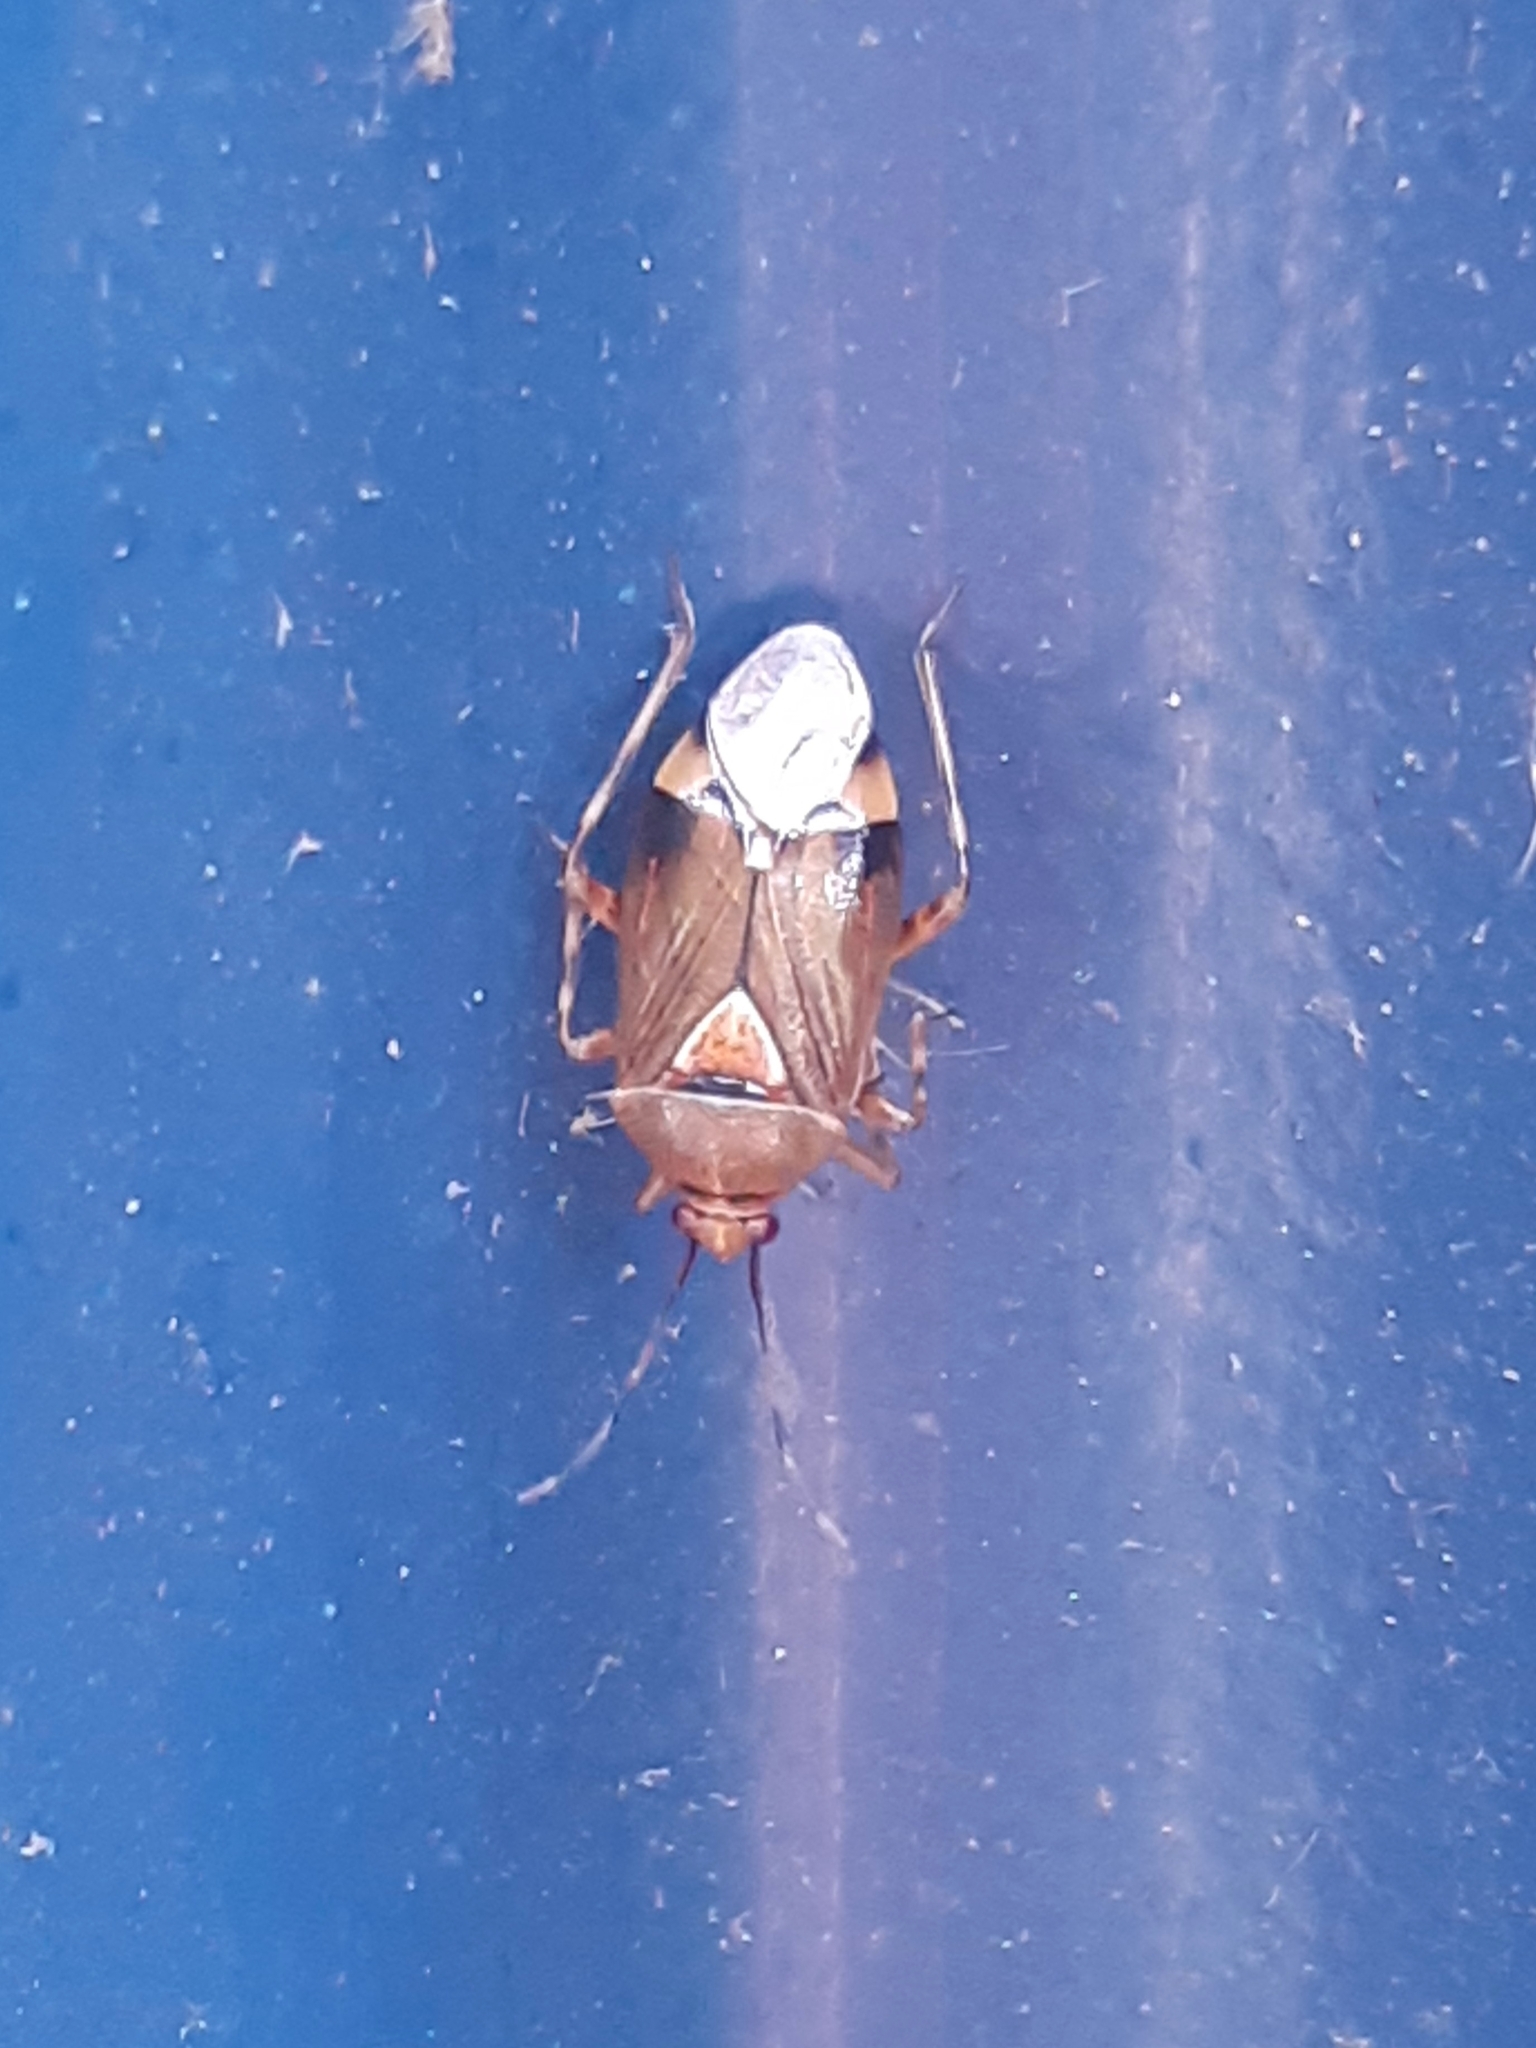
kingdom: Animalia
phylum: Arthropoda
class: Insecta
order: Hemiptera
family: Miridae
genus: Deraeocoris
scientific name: Deraeocoris flavilinea
